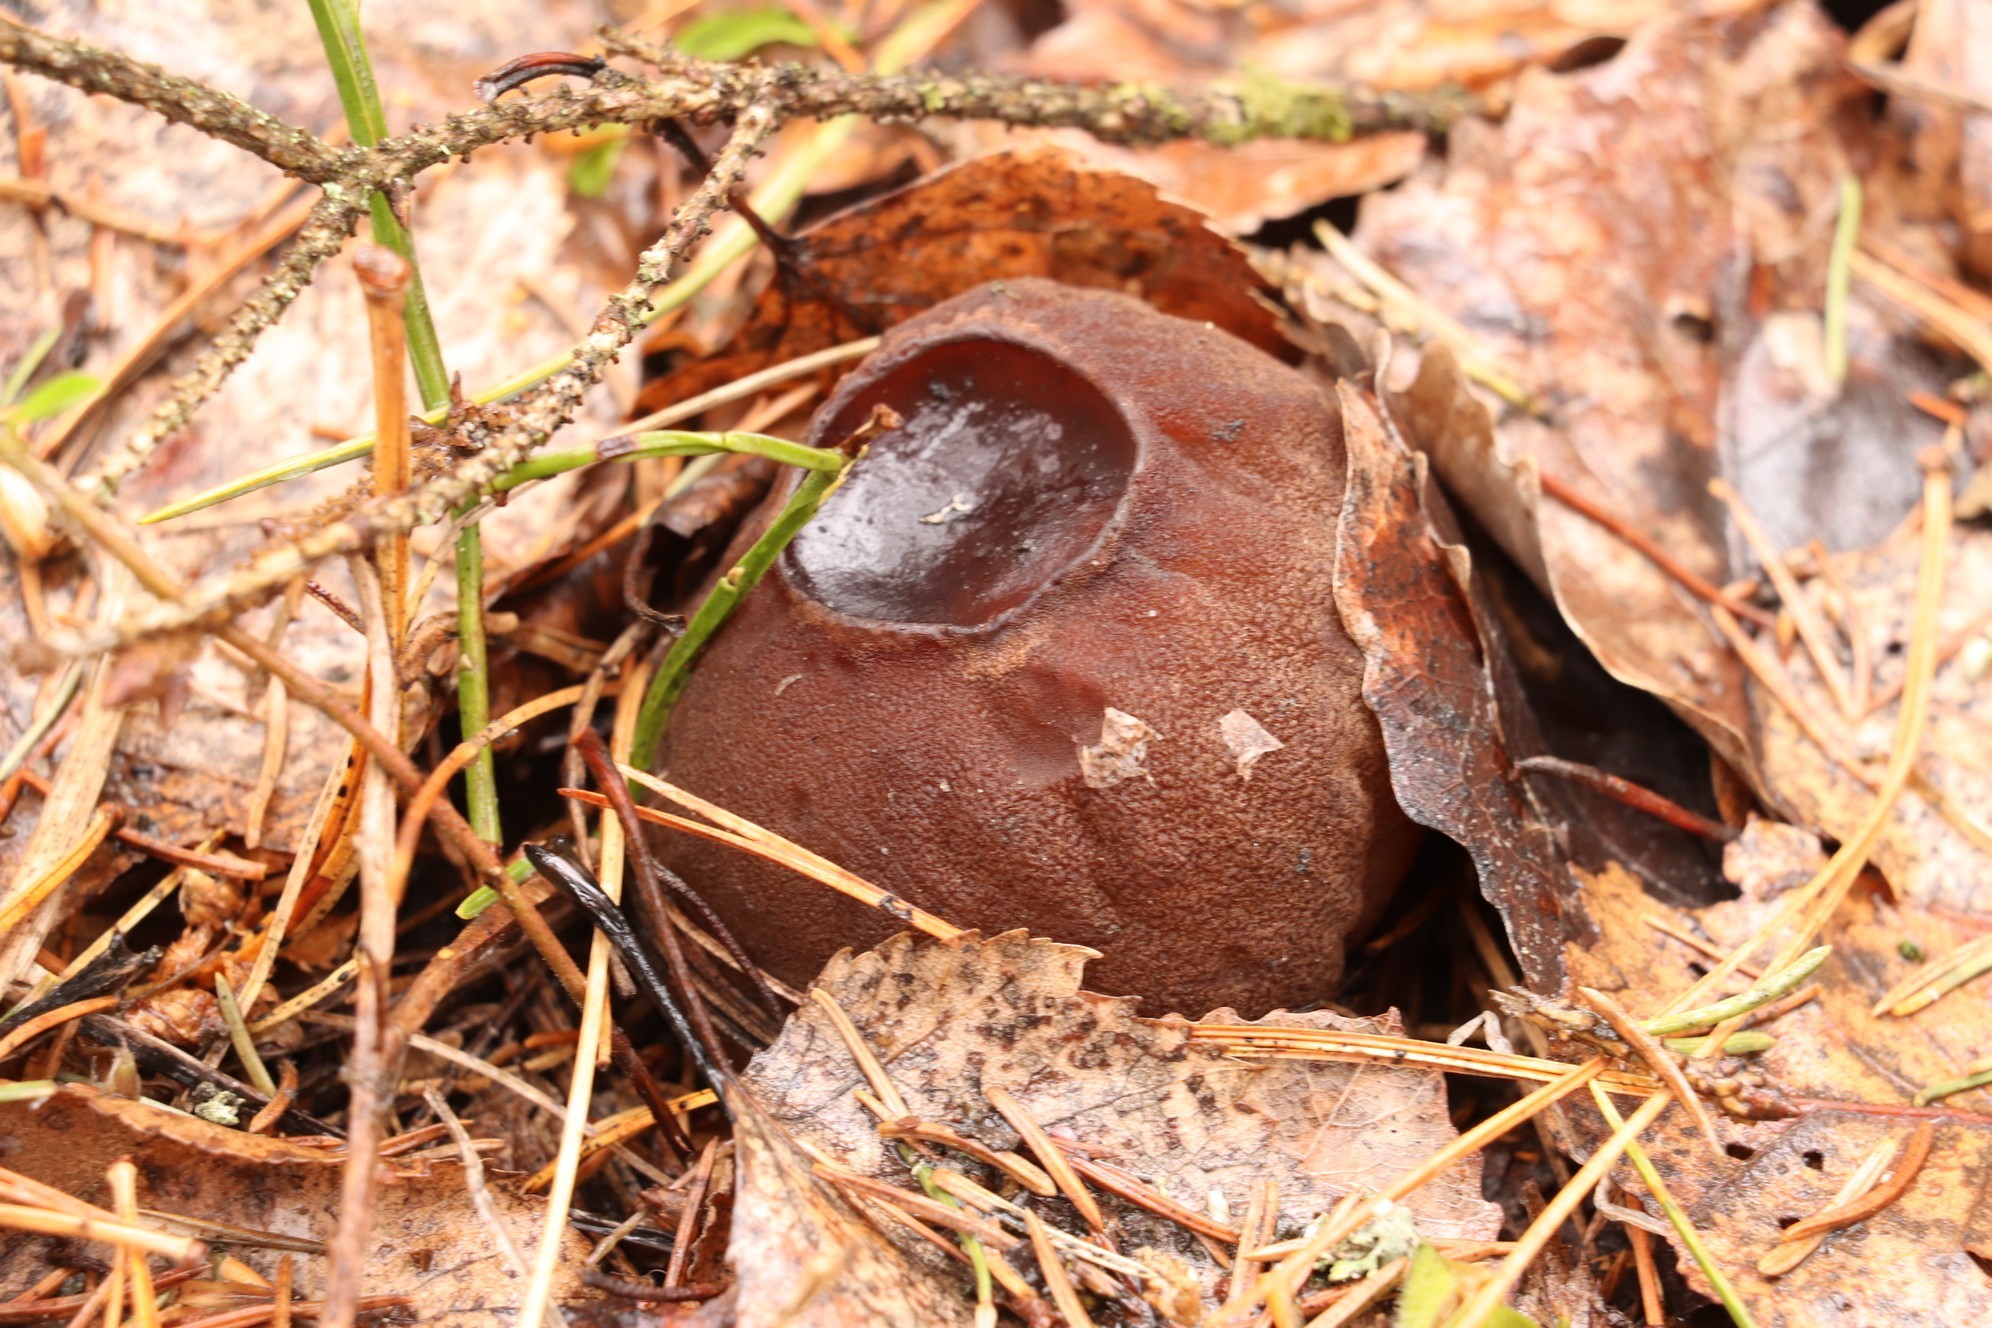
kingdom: Fungi
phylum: Ascomycota
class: Pezizomycetes
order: Pezizales
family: Sarcosomataceae
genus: Sarcosoma
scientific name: Sarcosoma globosum
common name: Charred-pancake cup
